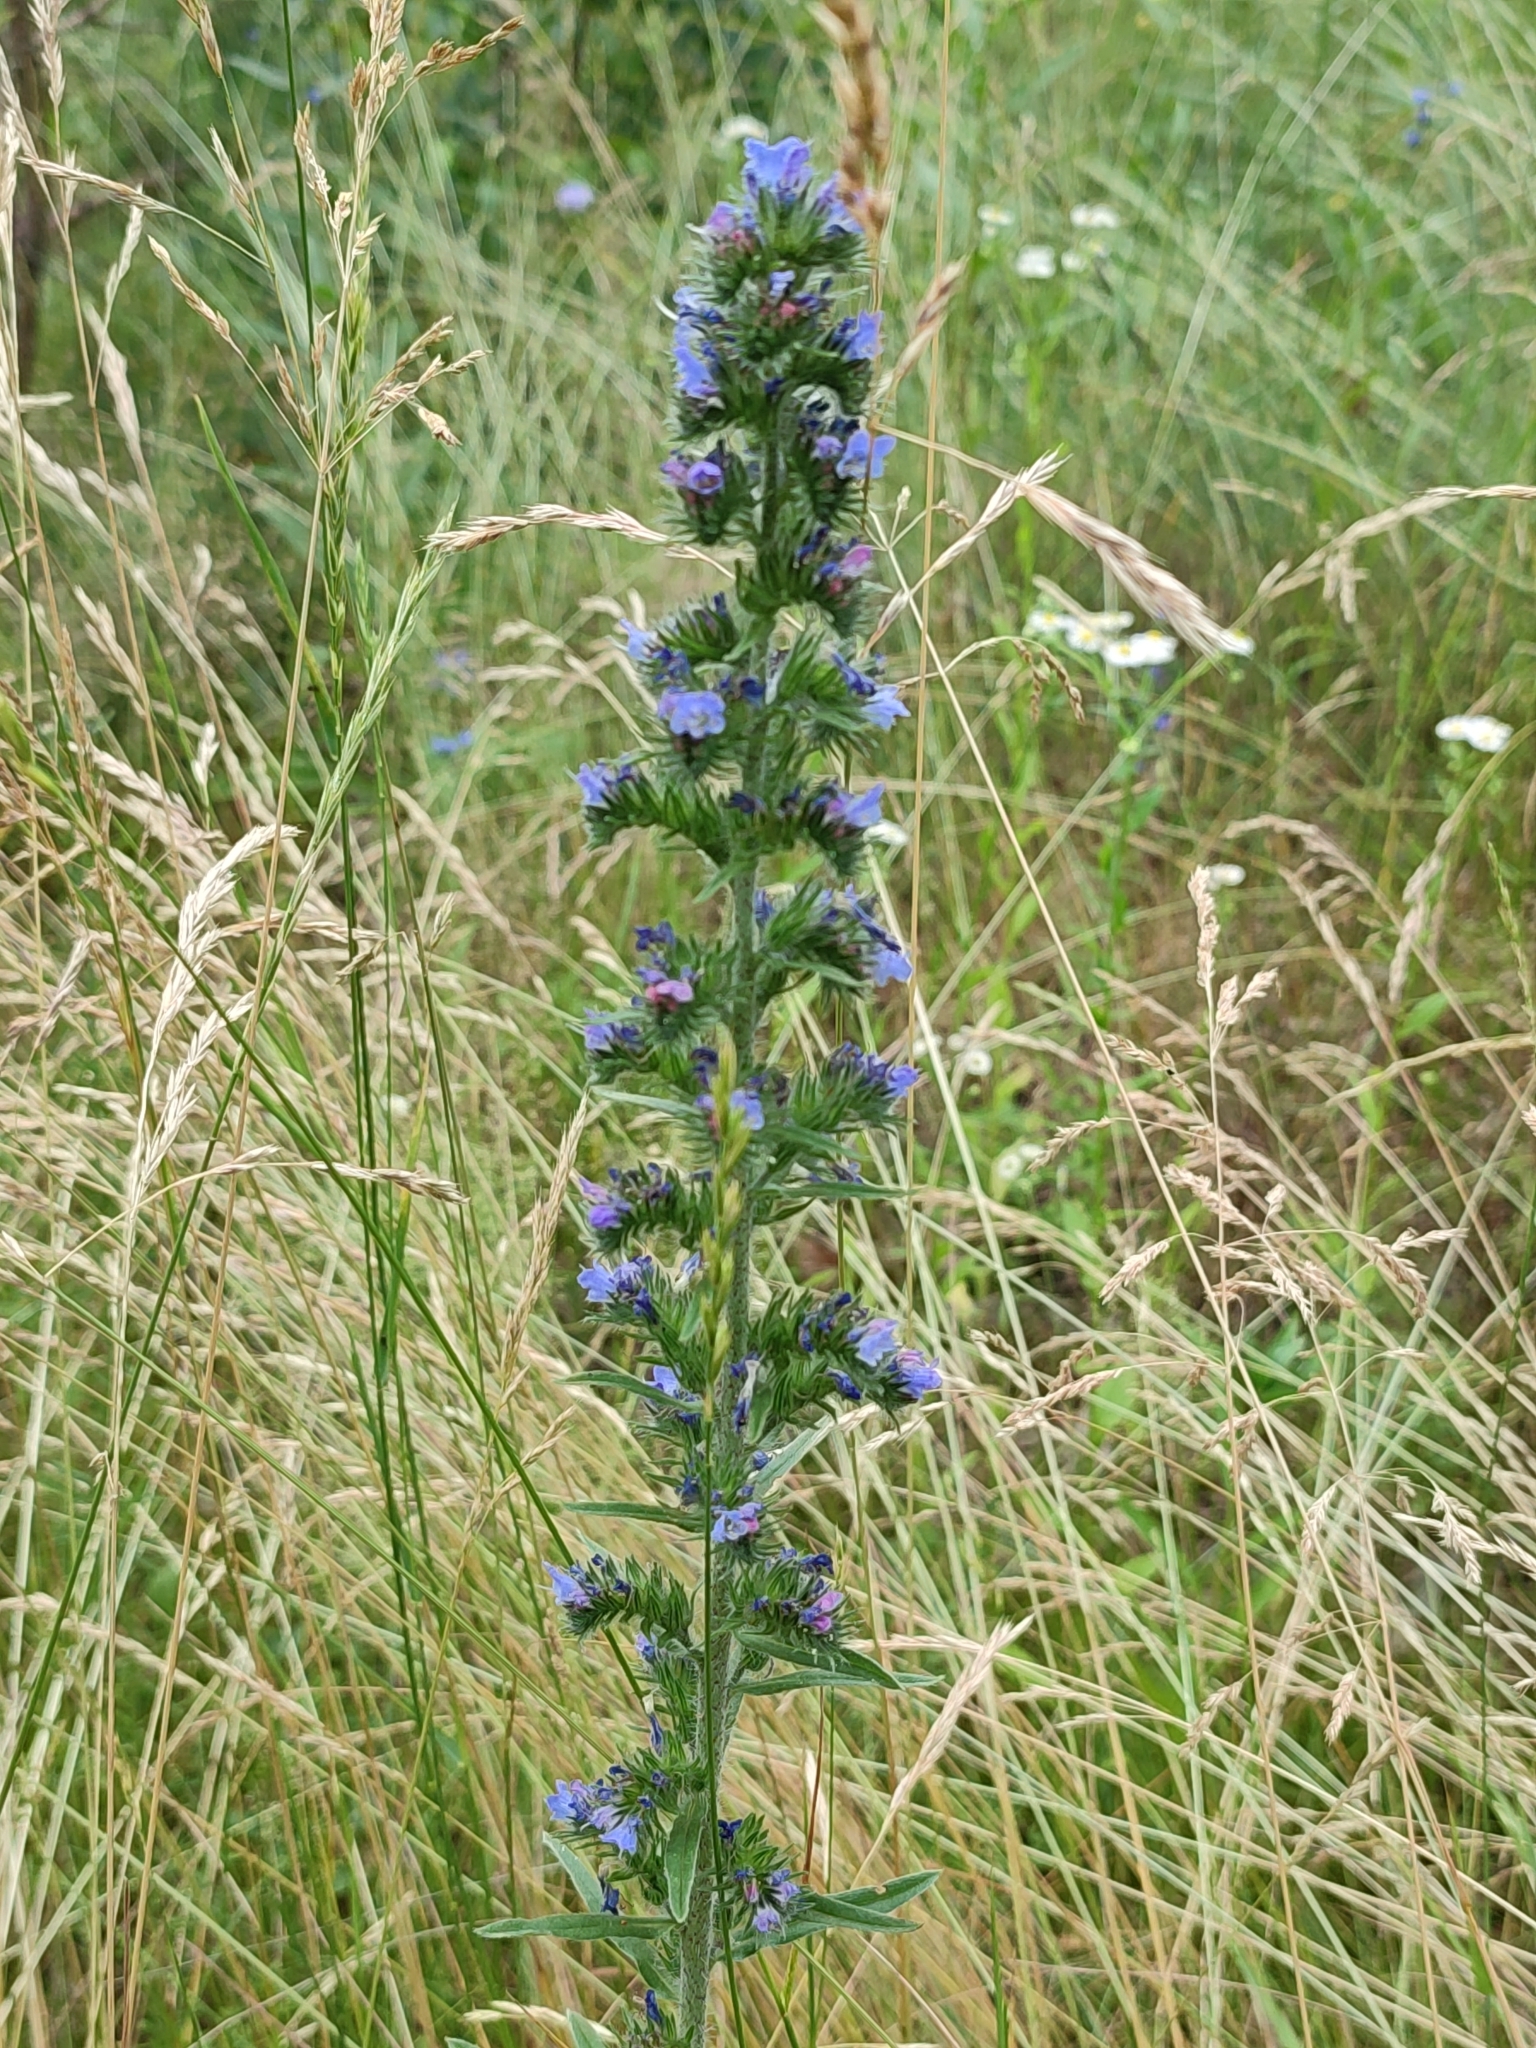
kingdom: Plantae
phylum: Tracheophyta
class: Magnoliopsida
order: Boraginales
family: Boraginaceae
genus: Echium
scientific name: Echium vulgare
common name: Common viper's bugloss
